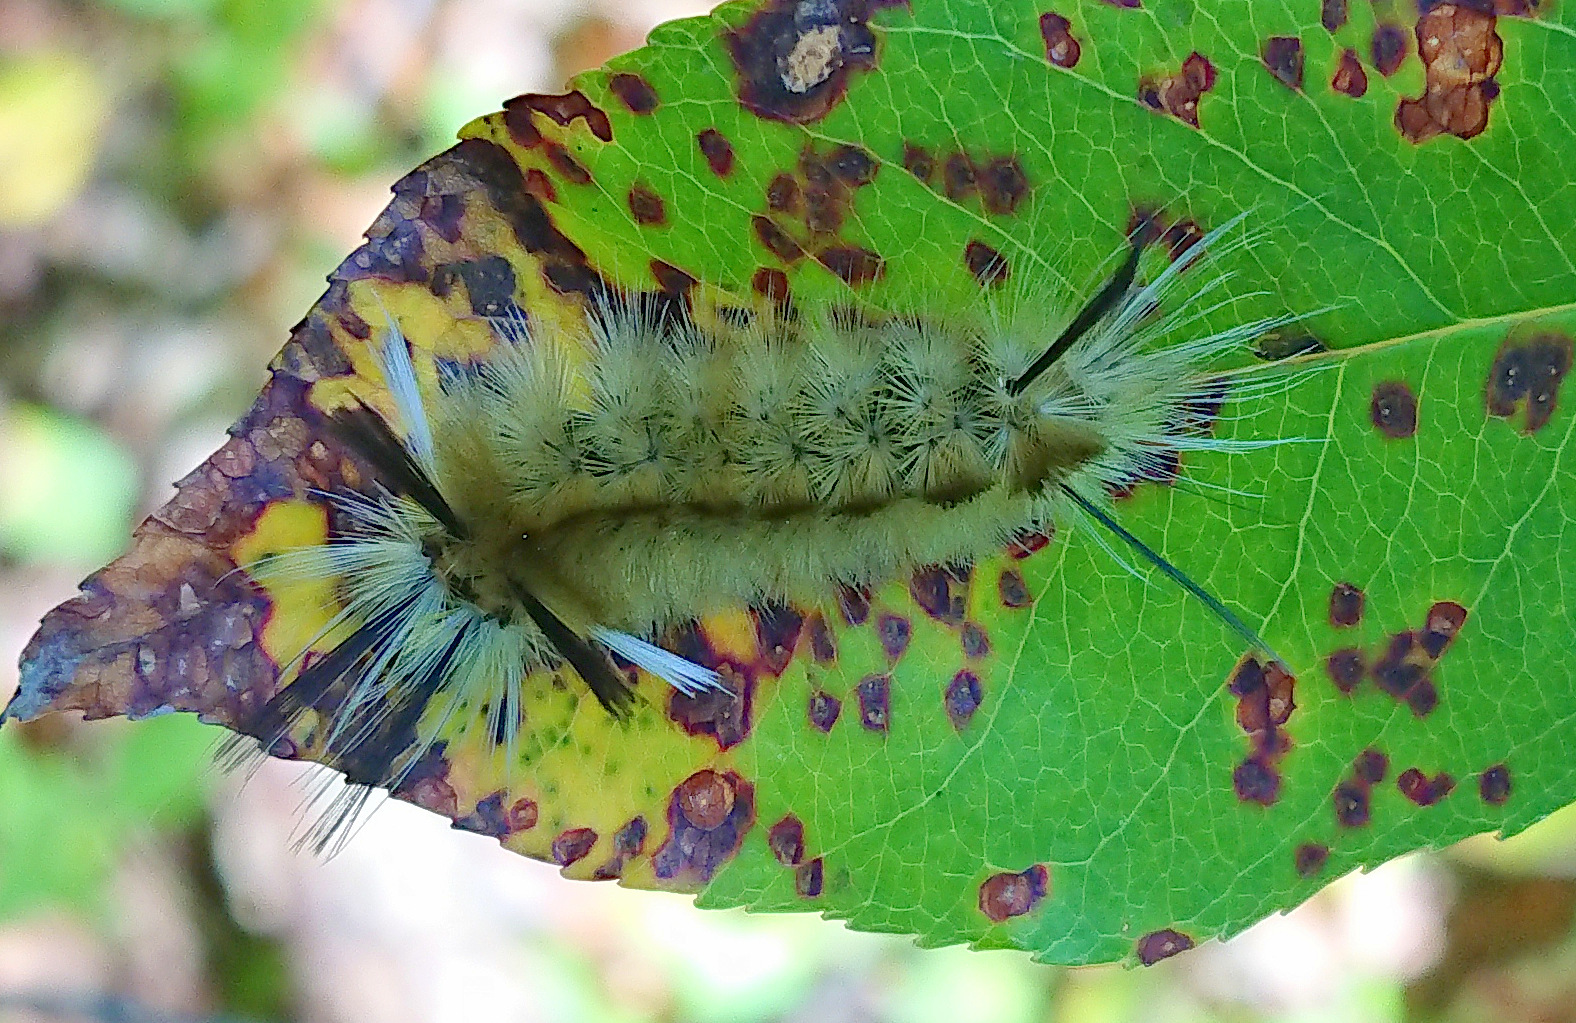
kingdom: Animalia
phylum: Arthropoda
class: Insecta
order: Lepidoptera
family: Erebidae
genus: Halysidota
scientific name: Halysidota tessellaris
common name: Banded tussock moth
